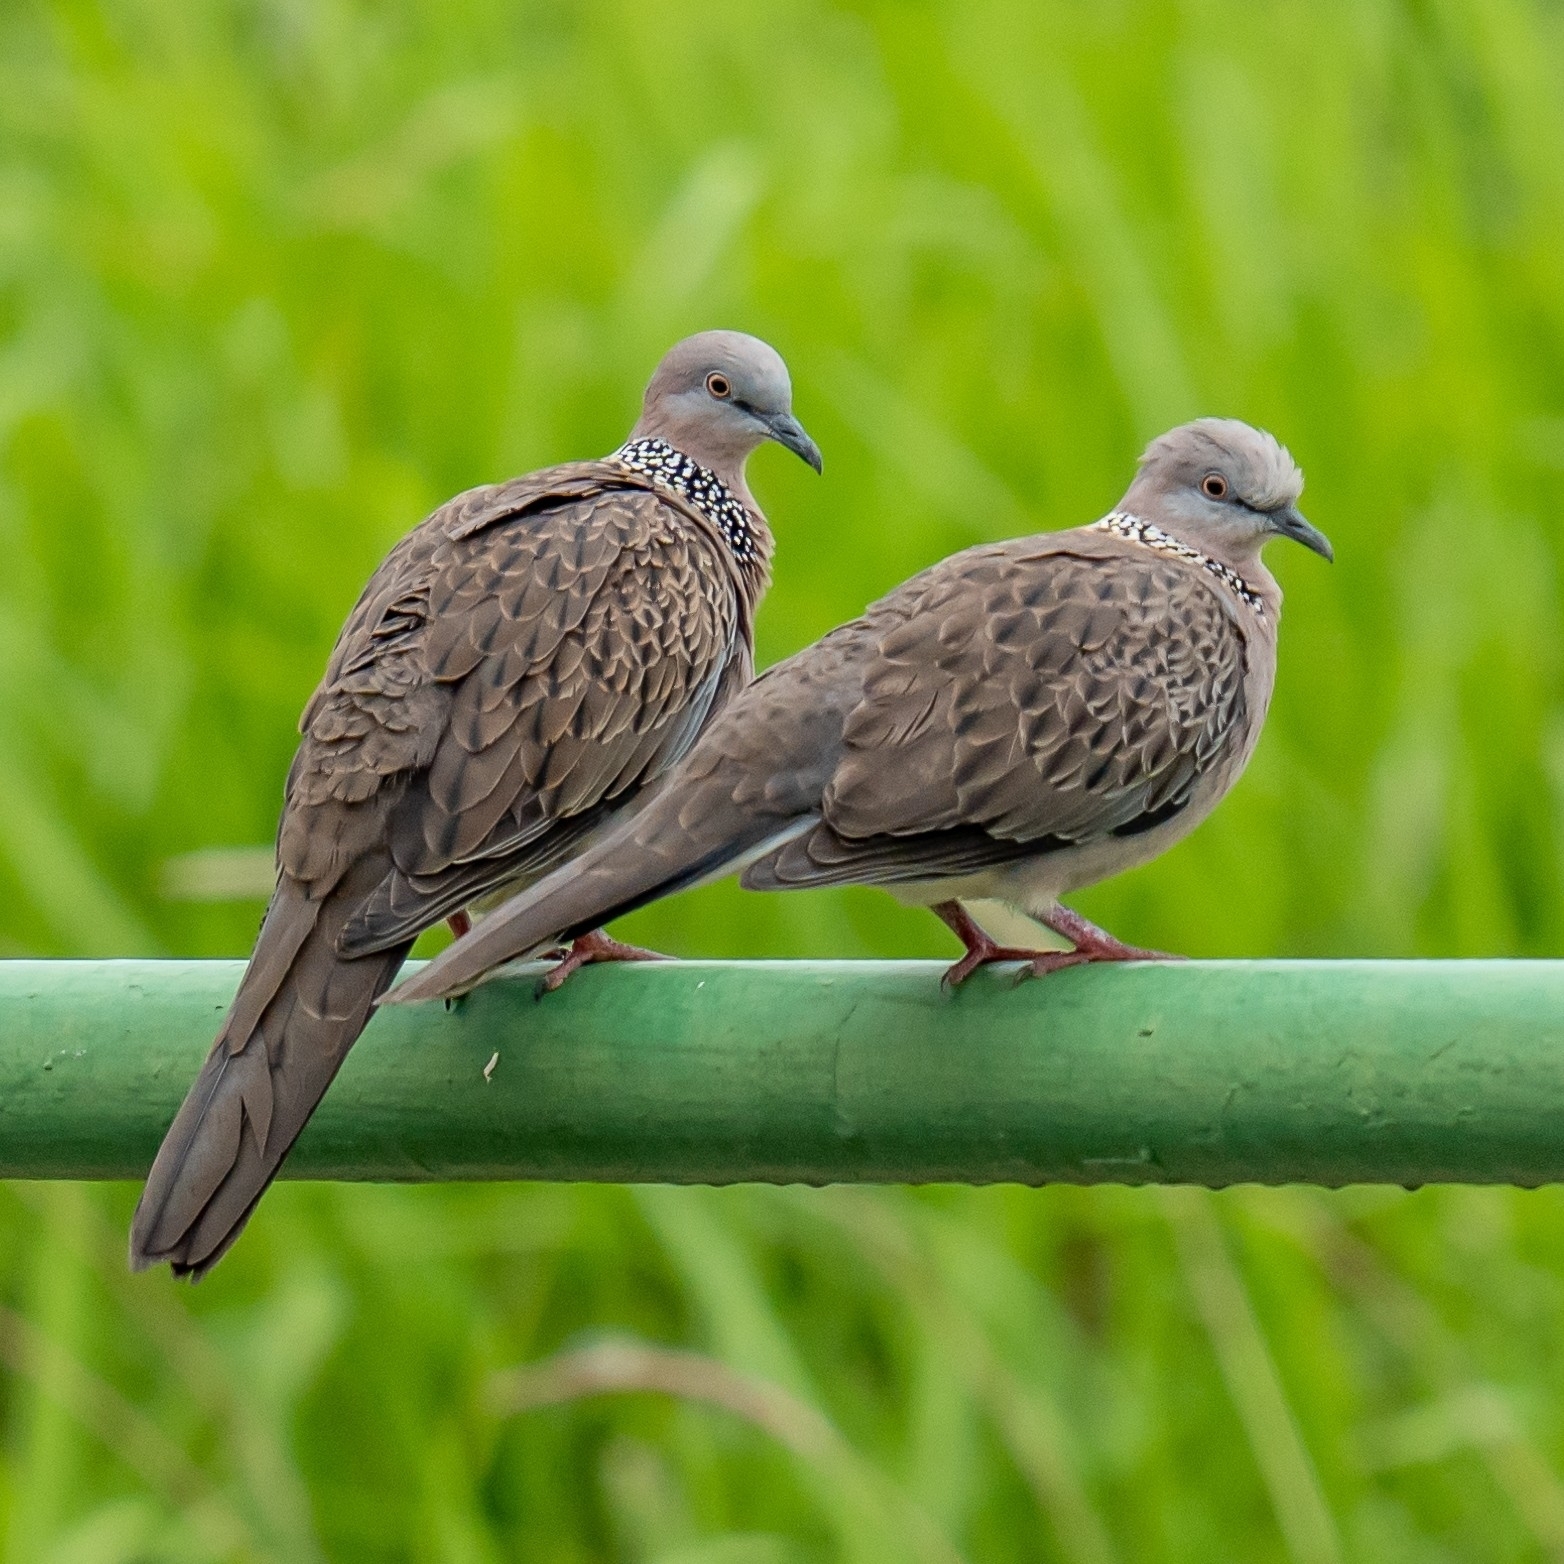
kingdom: Animalia
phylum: Chordata
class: Aves
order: Columbiformes
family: Columbidae
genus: Spilopelia
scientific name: Spilopelia chinensis
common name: Spotted dove
